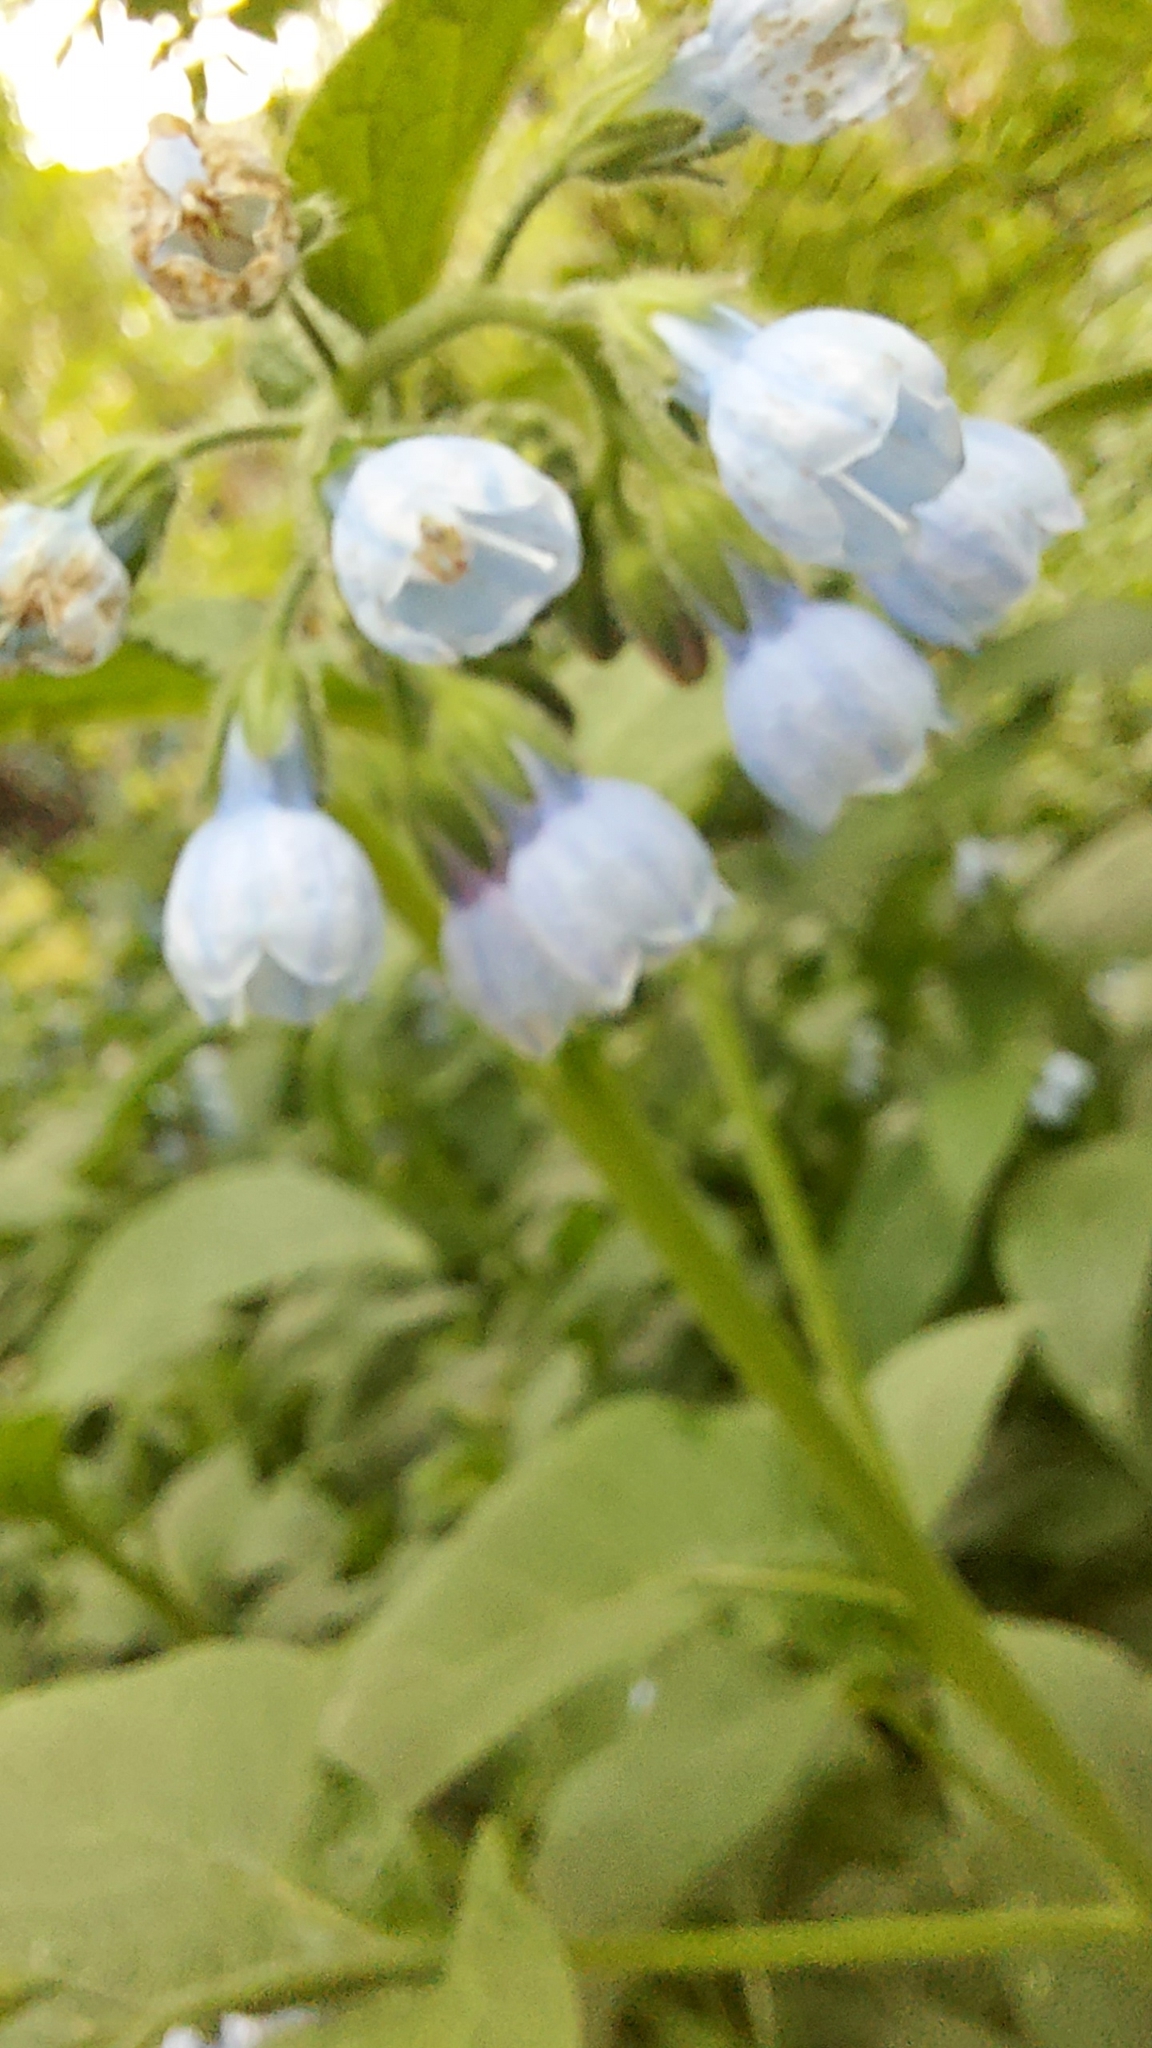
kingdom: Plantae
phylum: Tracheophyta
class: Magnoliopsida
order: Boraginales
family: Boraginaceae
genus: Symphytum
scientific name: Symphytum caucasicum
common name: Caucasian comfrey
